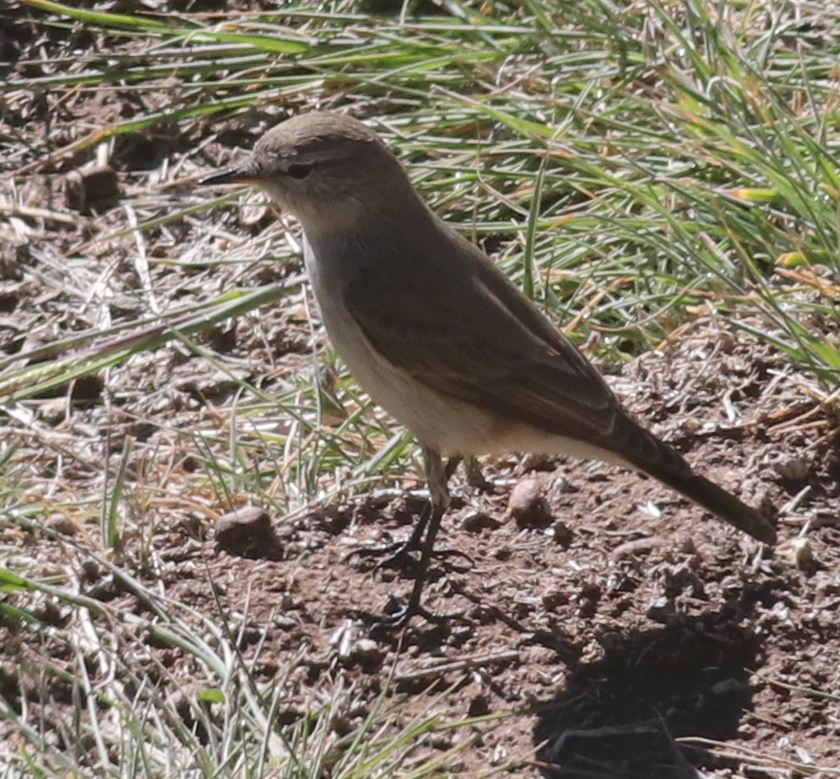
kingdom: Animalia
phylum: Chordata
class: Aves
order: Passeriformes
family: Tyrannidae
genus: Muscisaxicola
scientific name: Muscisaxicola maculirostris
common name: Spot-billed ground tyrant
